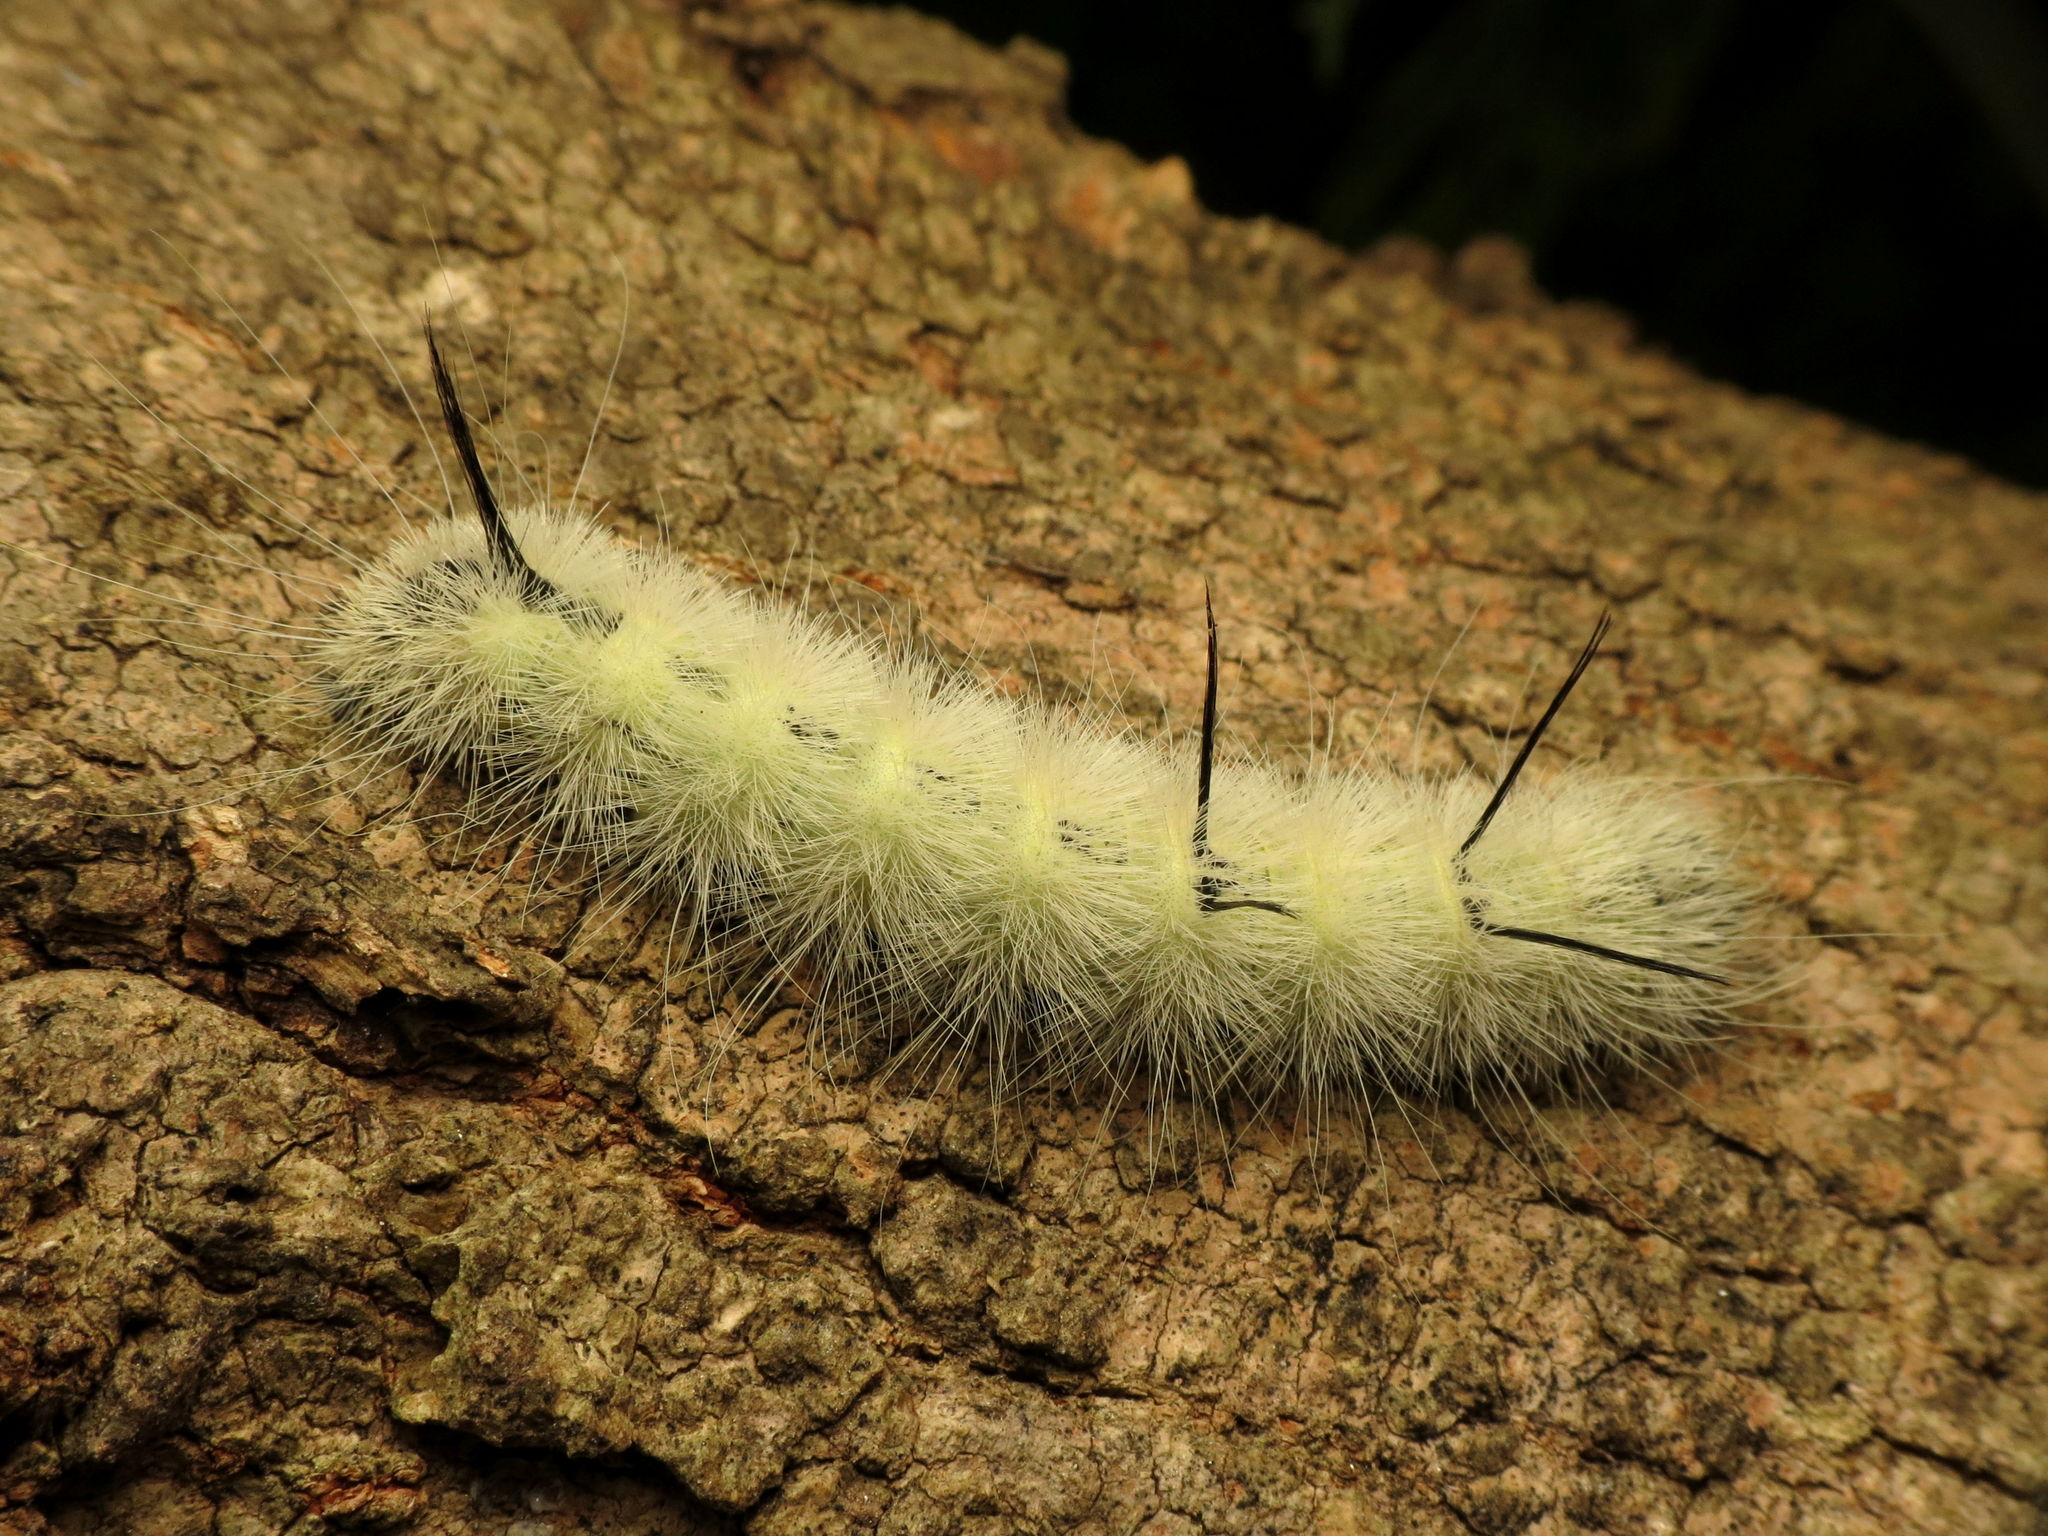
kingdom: Animalia
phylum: Arthropoda
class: Insecta
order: Lepidoptera
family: Noctuidae
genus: Acronicta
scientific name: Acronicta americana
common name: American dagger
